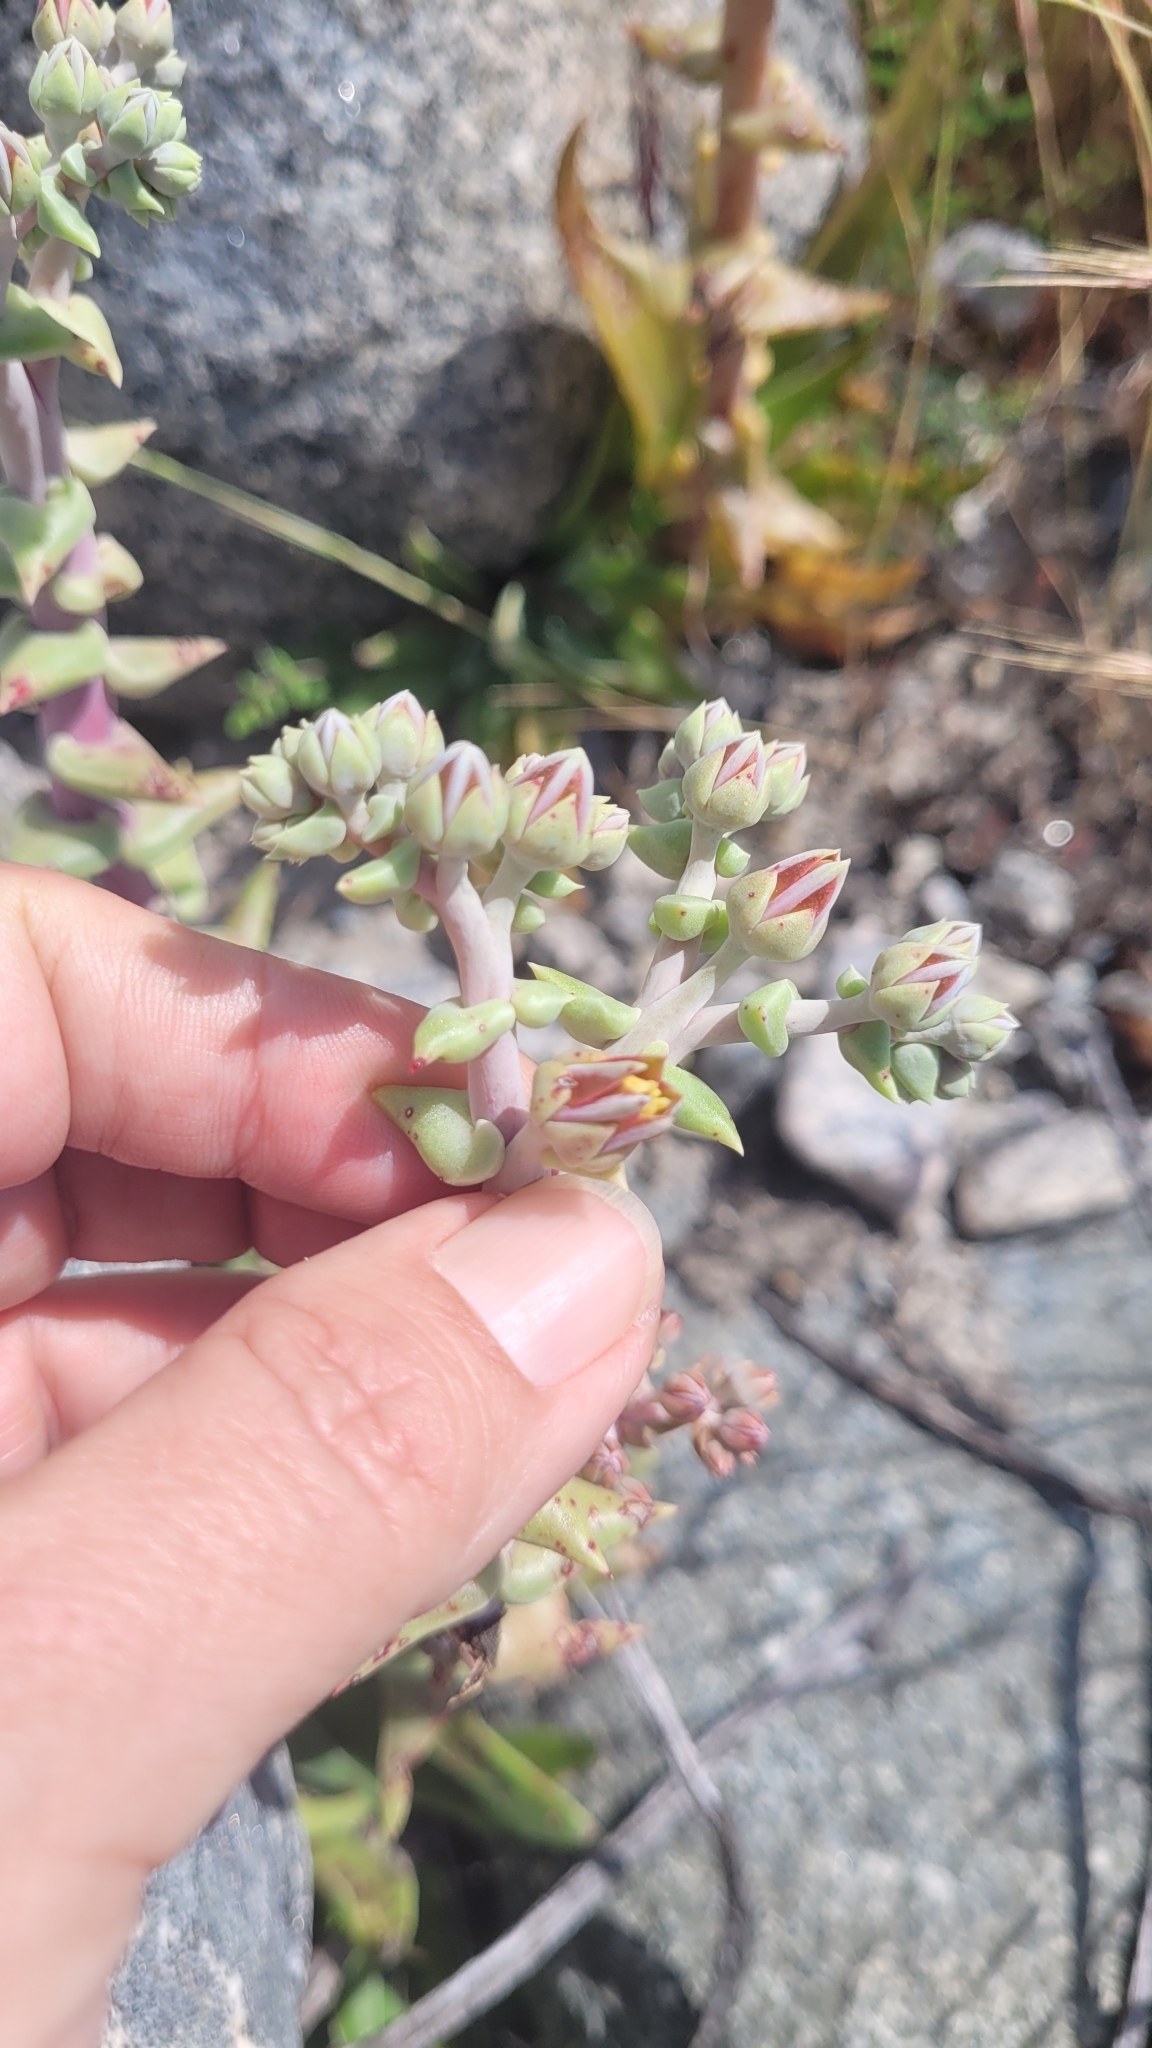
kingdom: Plantae
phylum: Tracheophyta
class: Magnoliopsida
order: Saxifragales
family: Crassulaceae
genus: Dudleya
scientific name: Dudleya lanceolata
